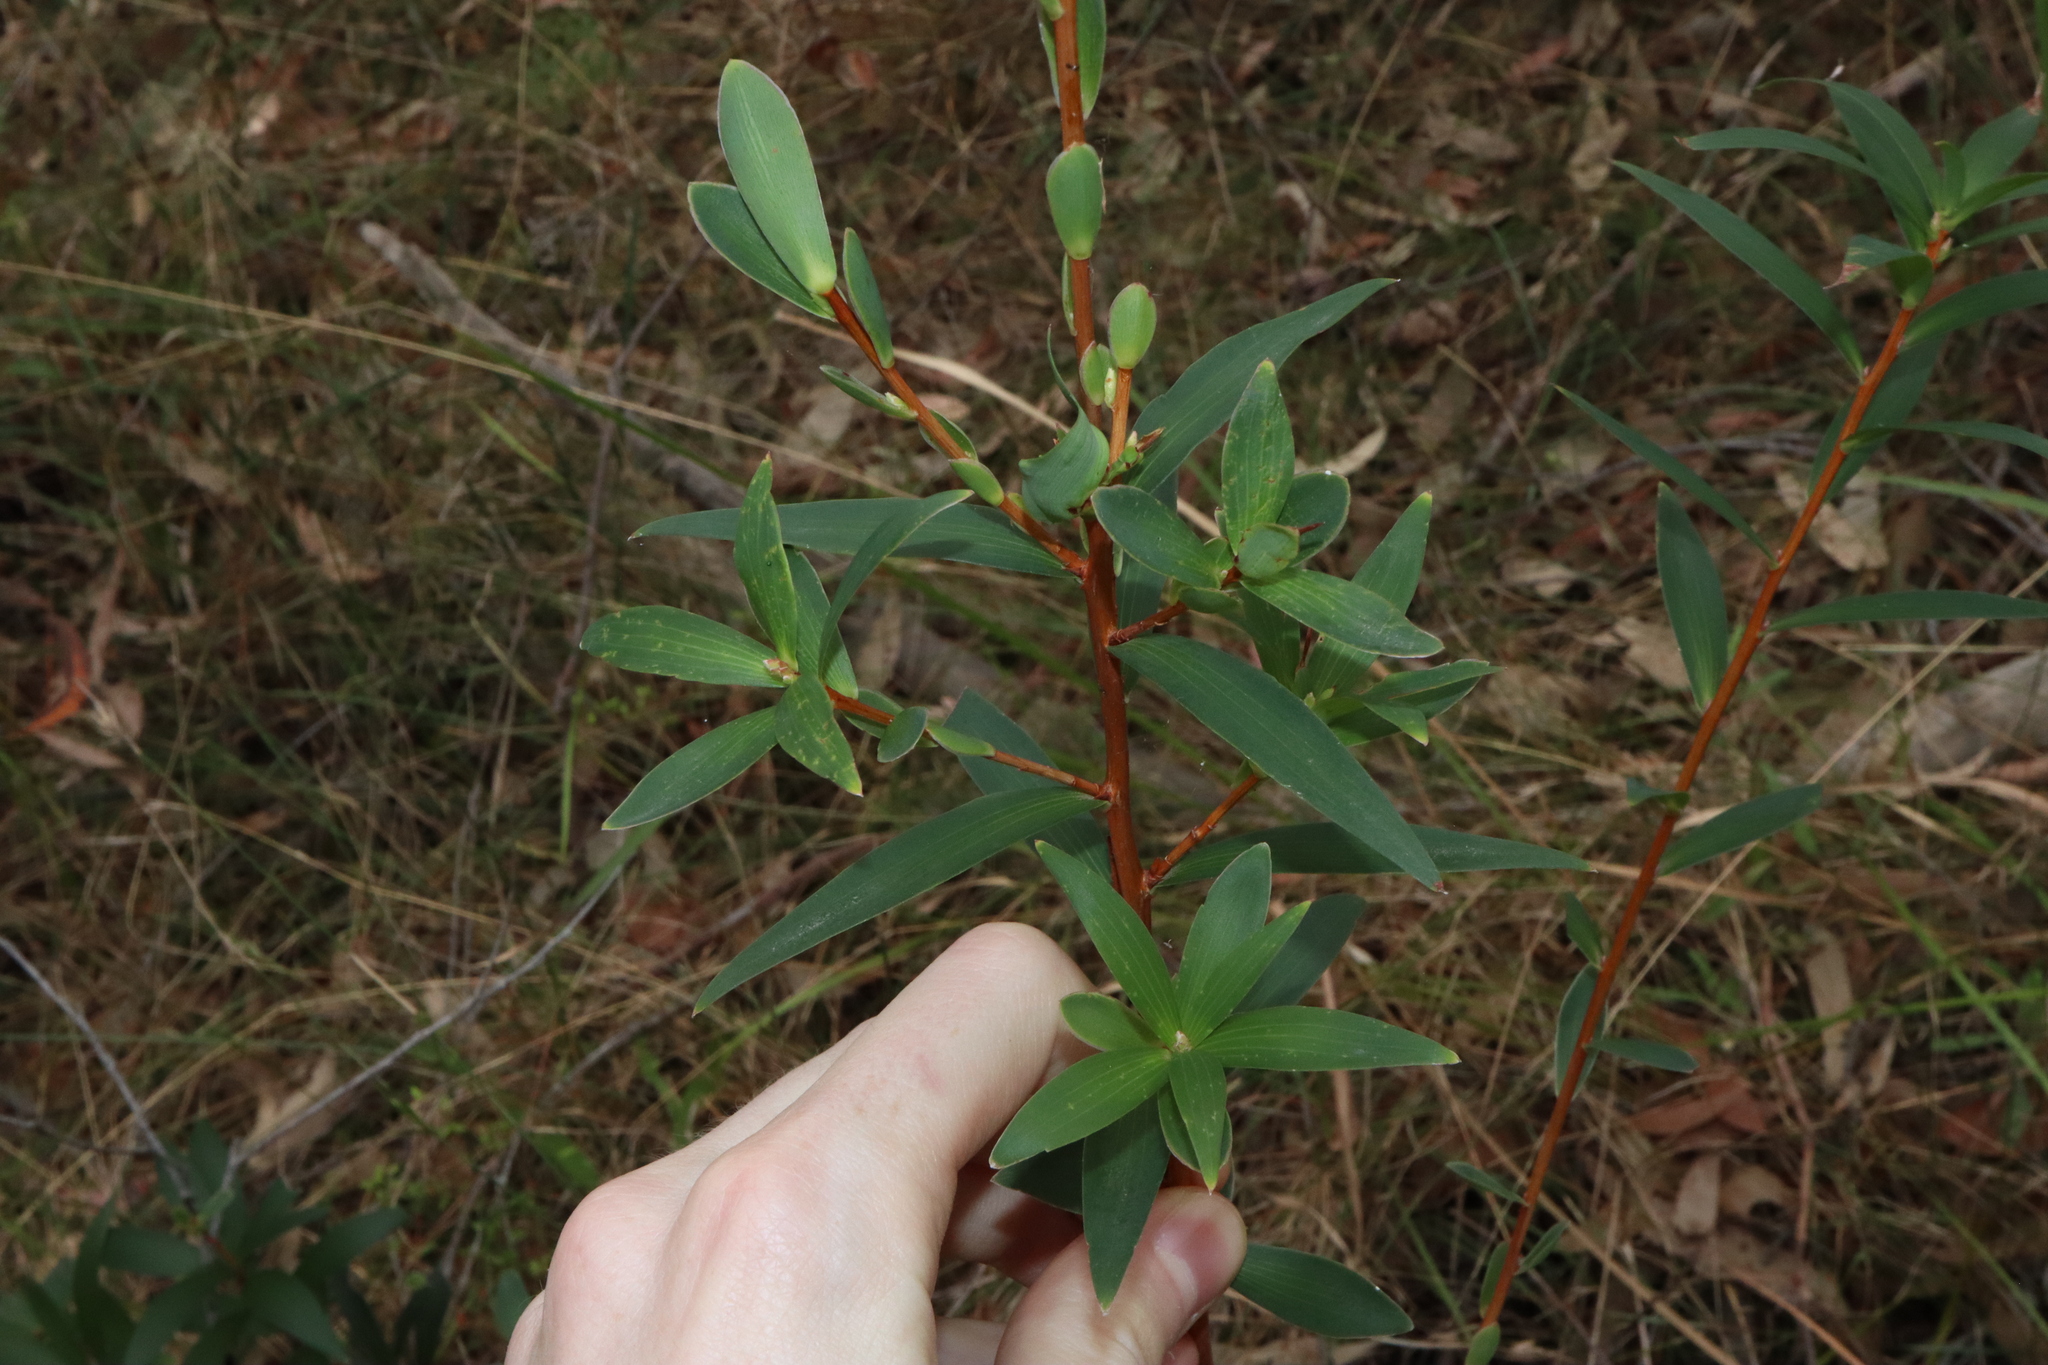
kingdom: Plantae
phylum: Tracheophyta
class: Magnoliopsida
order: Ericales
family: Ericaceae
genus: Leucopogon
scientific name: Leucopogon lanceolatus
